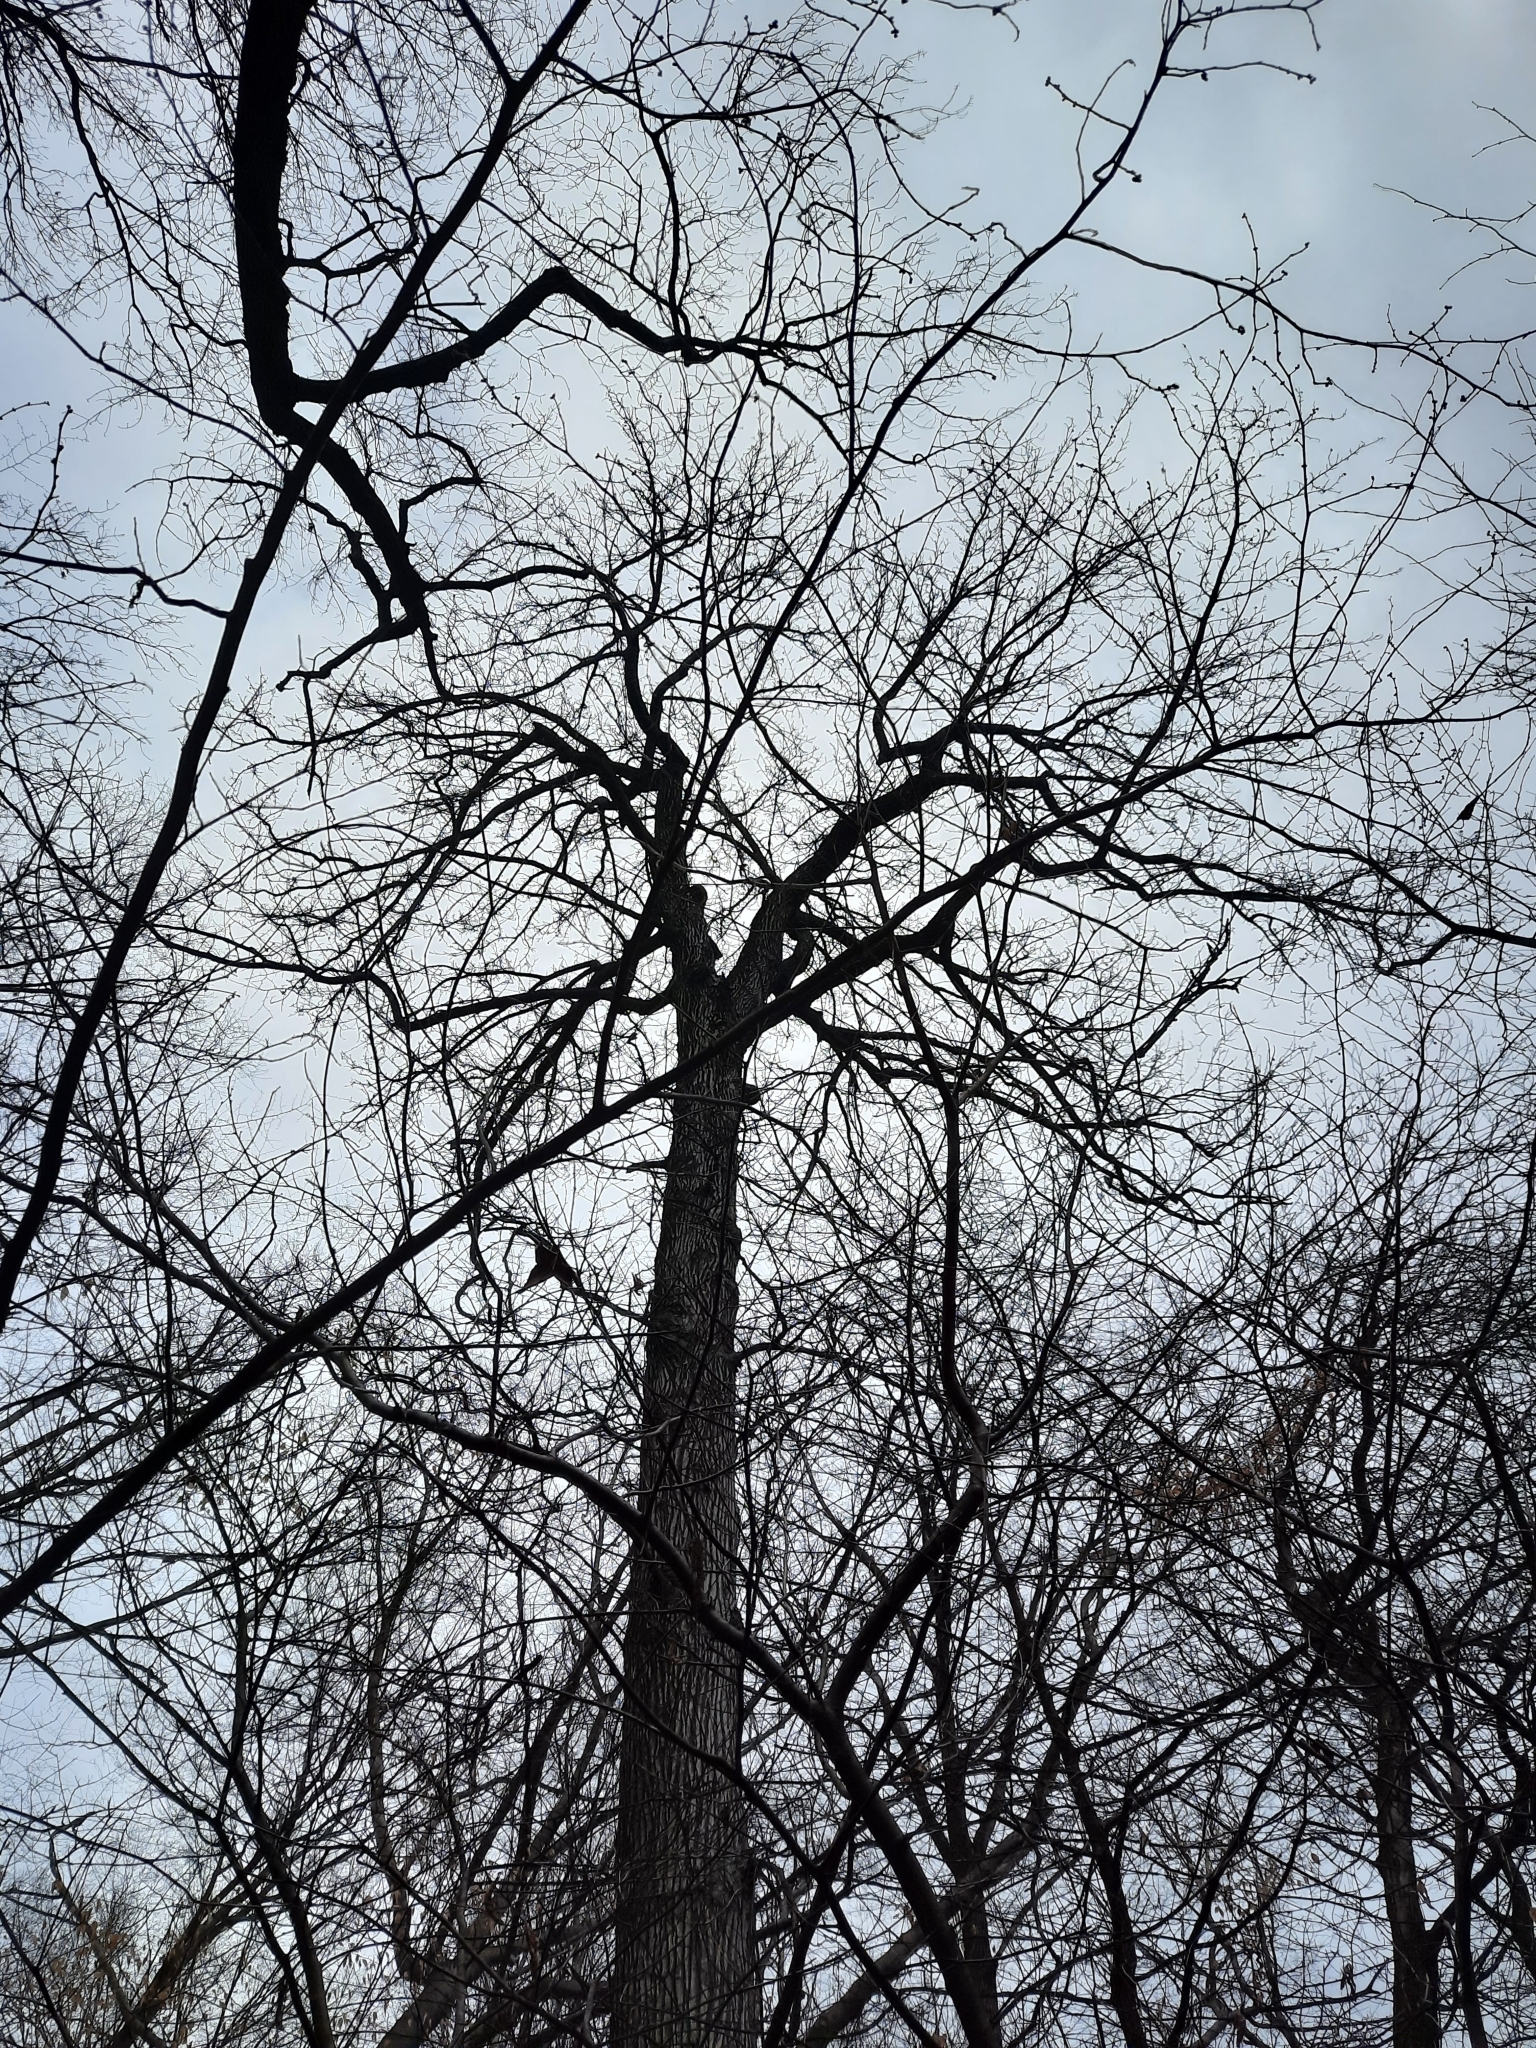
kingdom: Plantae
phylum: Tracheophyta
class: Magnoliopsida
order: Saxifragales
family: Altingiaceae
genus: Liquidambar
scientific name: Liquidambar styraciflua
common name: Sweet gum
